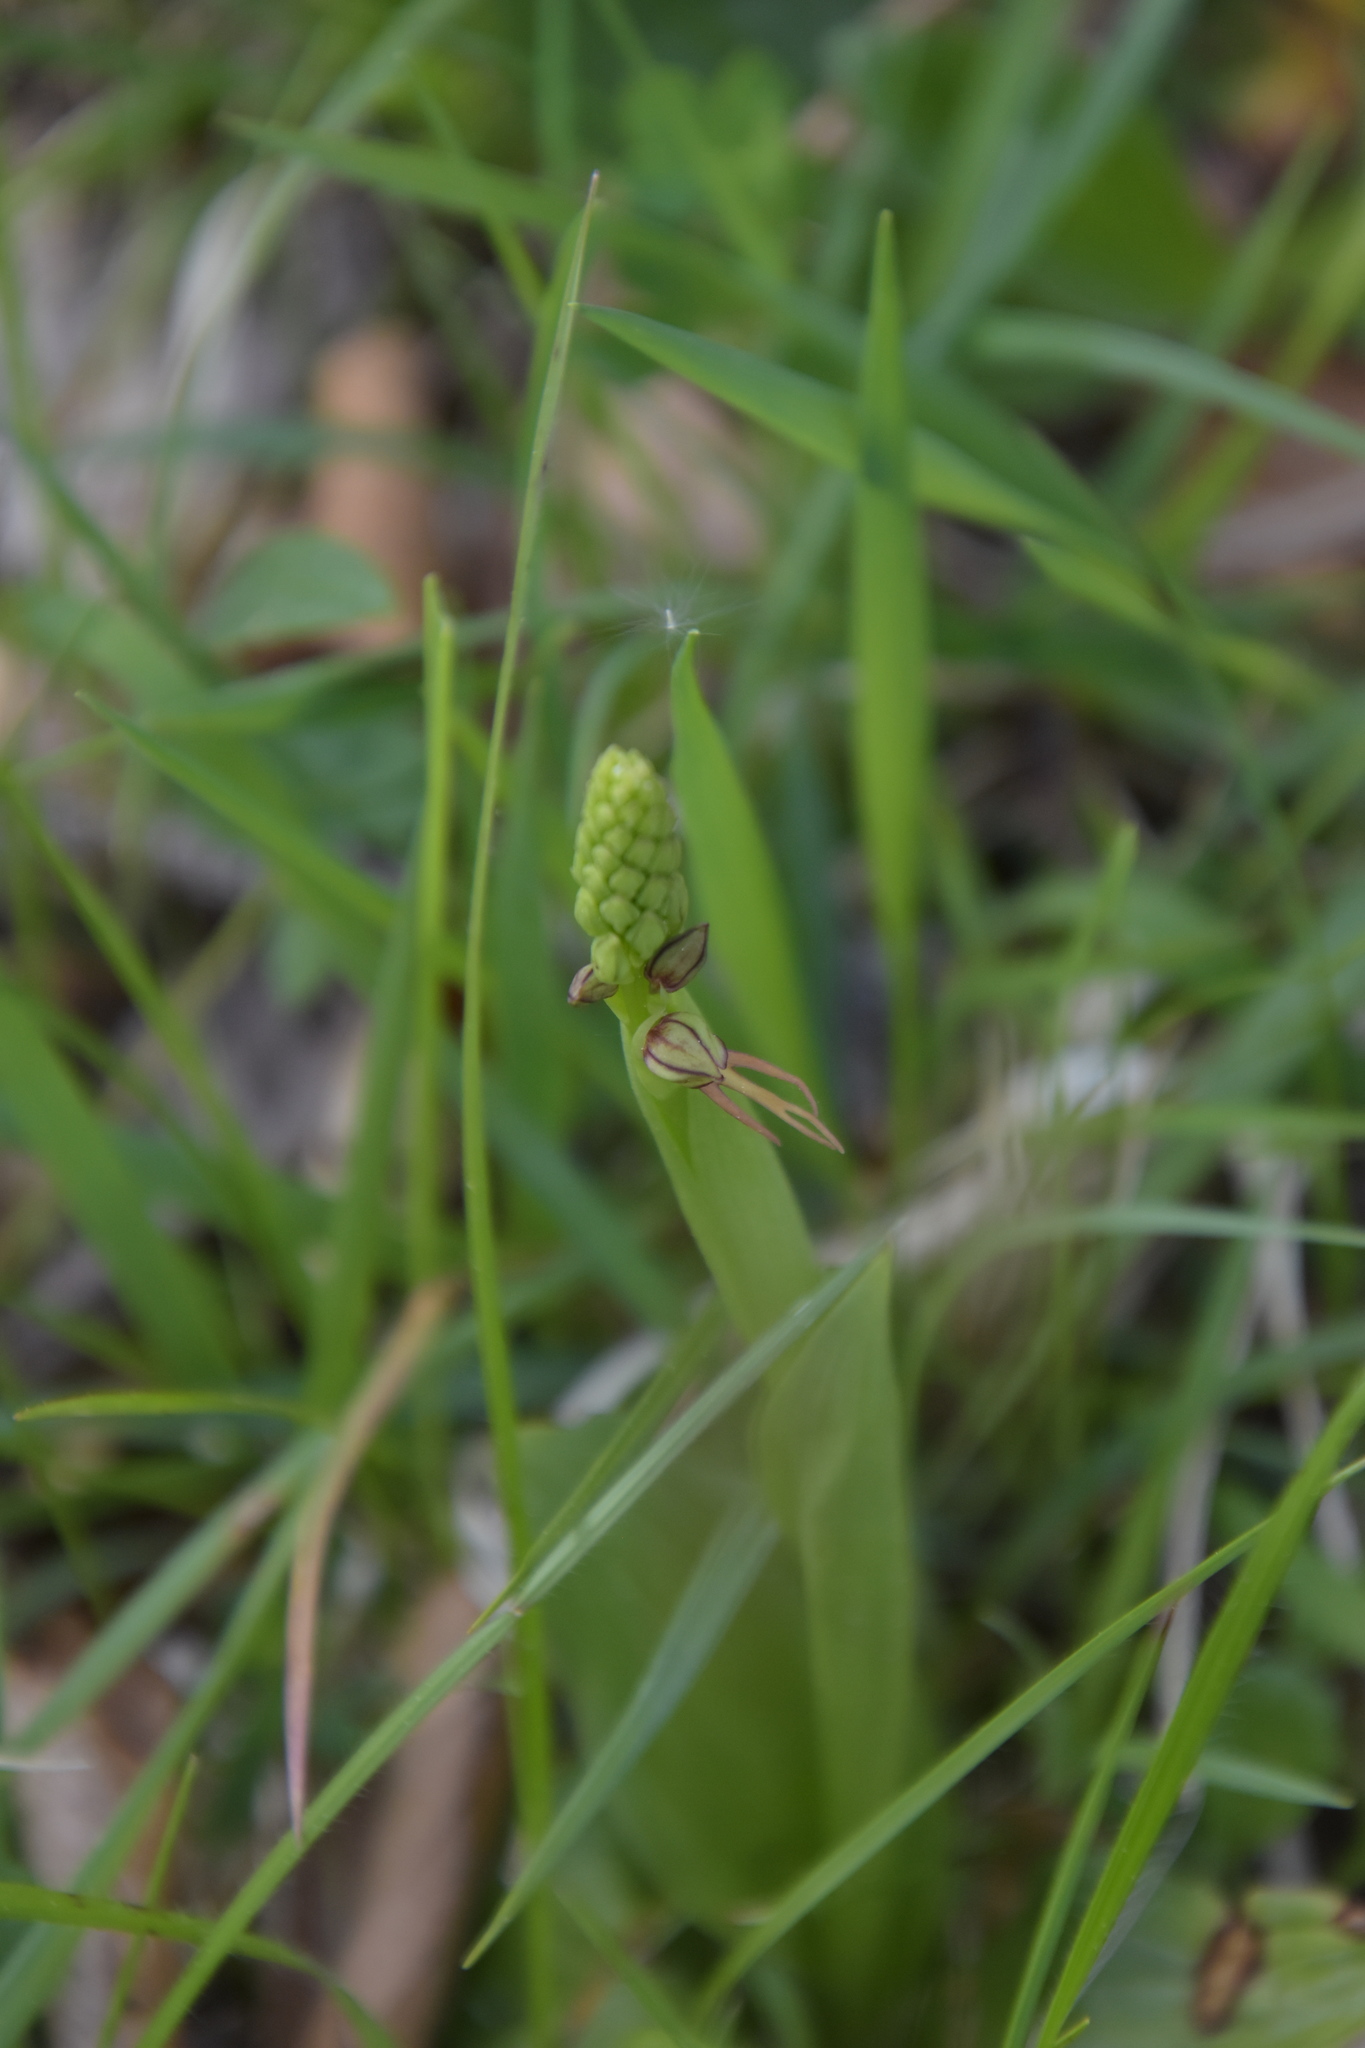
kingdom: Plantae
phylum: Tracheophyta
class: Liliopsida
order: Asparagales
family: Orchidaceae
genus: Orchis
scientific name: Orchis anthropophora
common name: Man orchid
